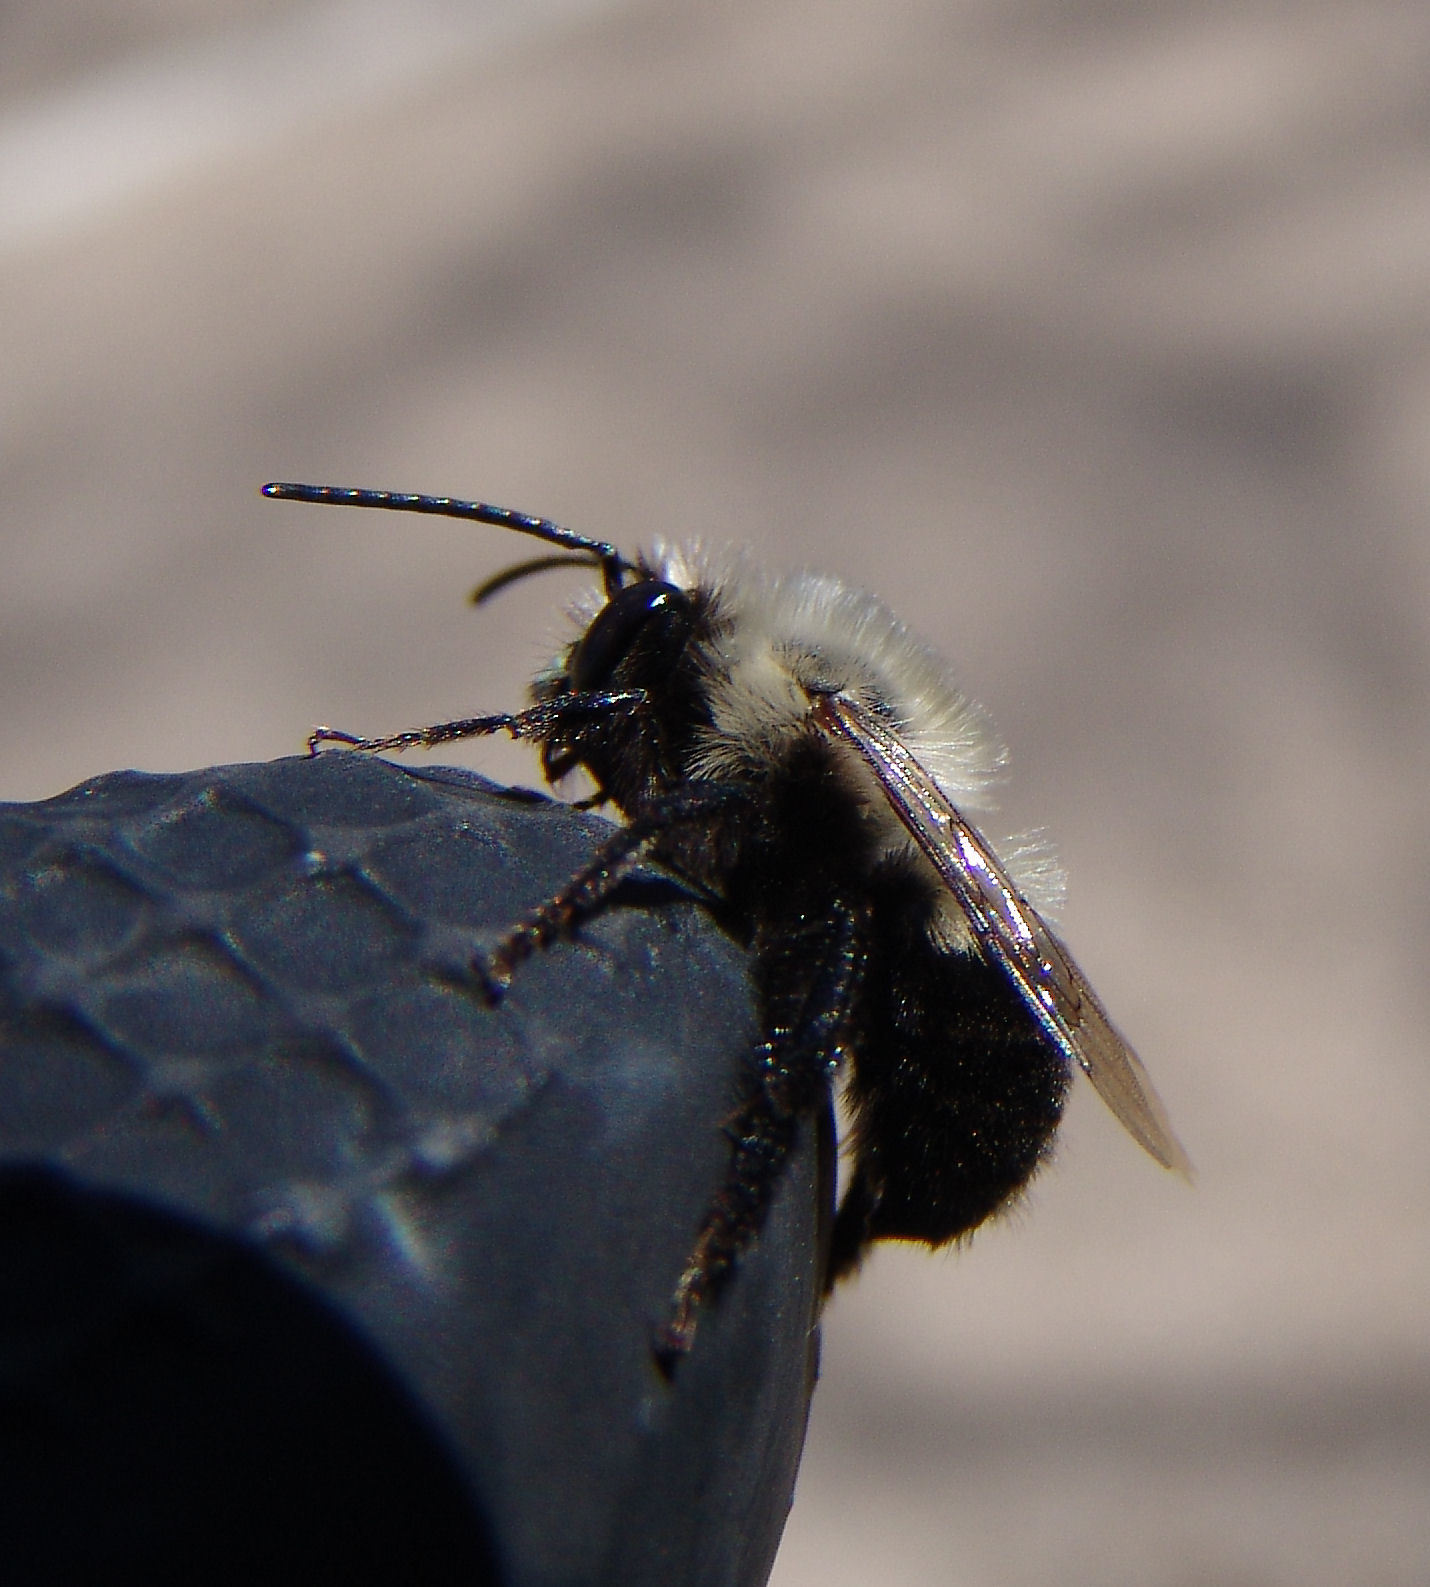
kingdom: Animalia
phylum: Arthropoda
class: Insecta
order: Hymenoptera
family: Apidae
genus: Habropoda
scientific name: Habropoda laboriosa
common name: Southeastern blueberry bee
